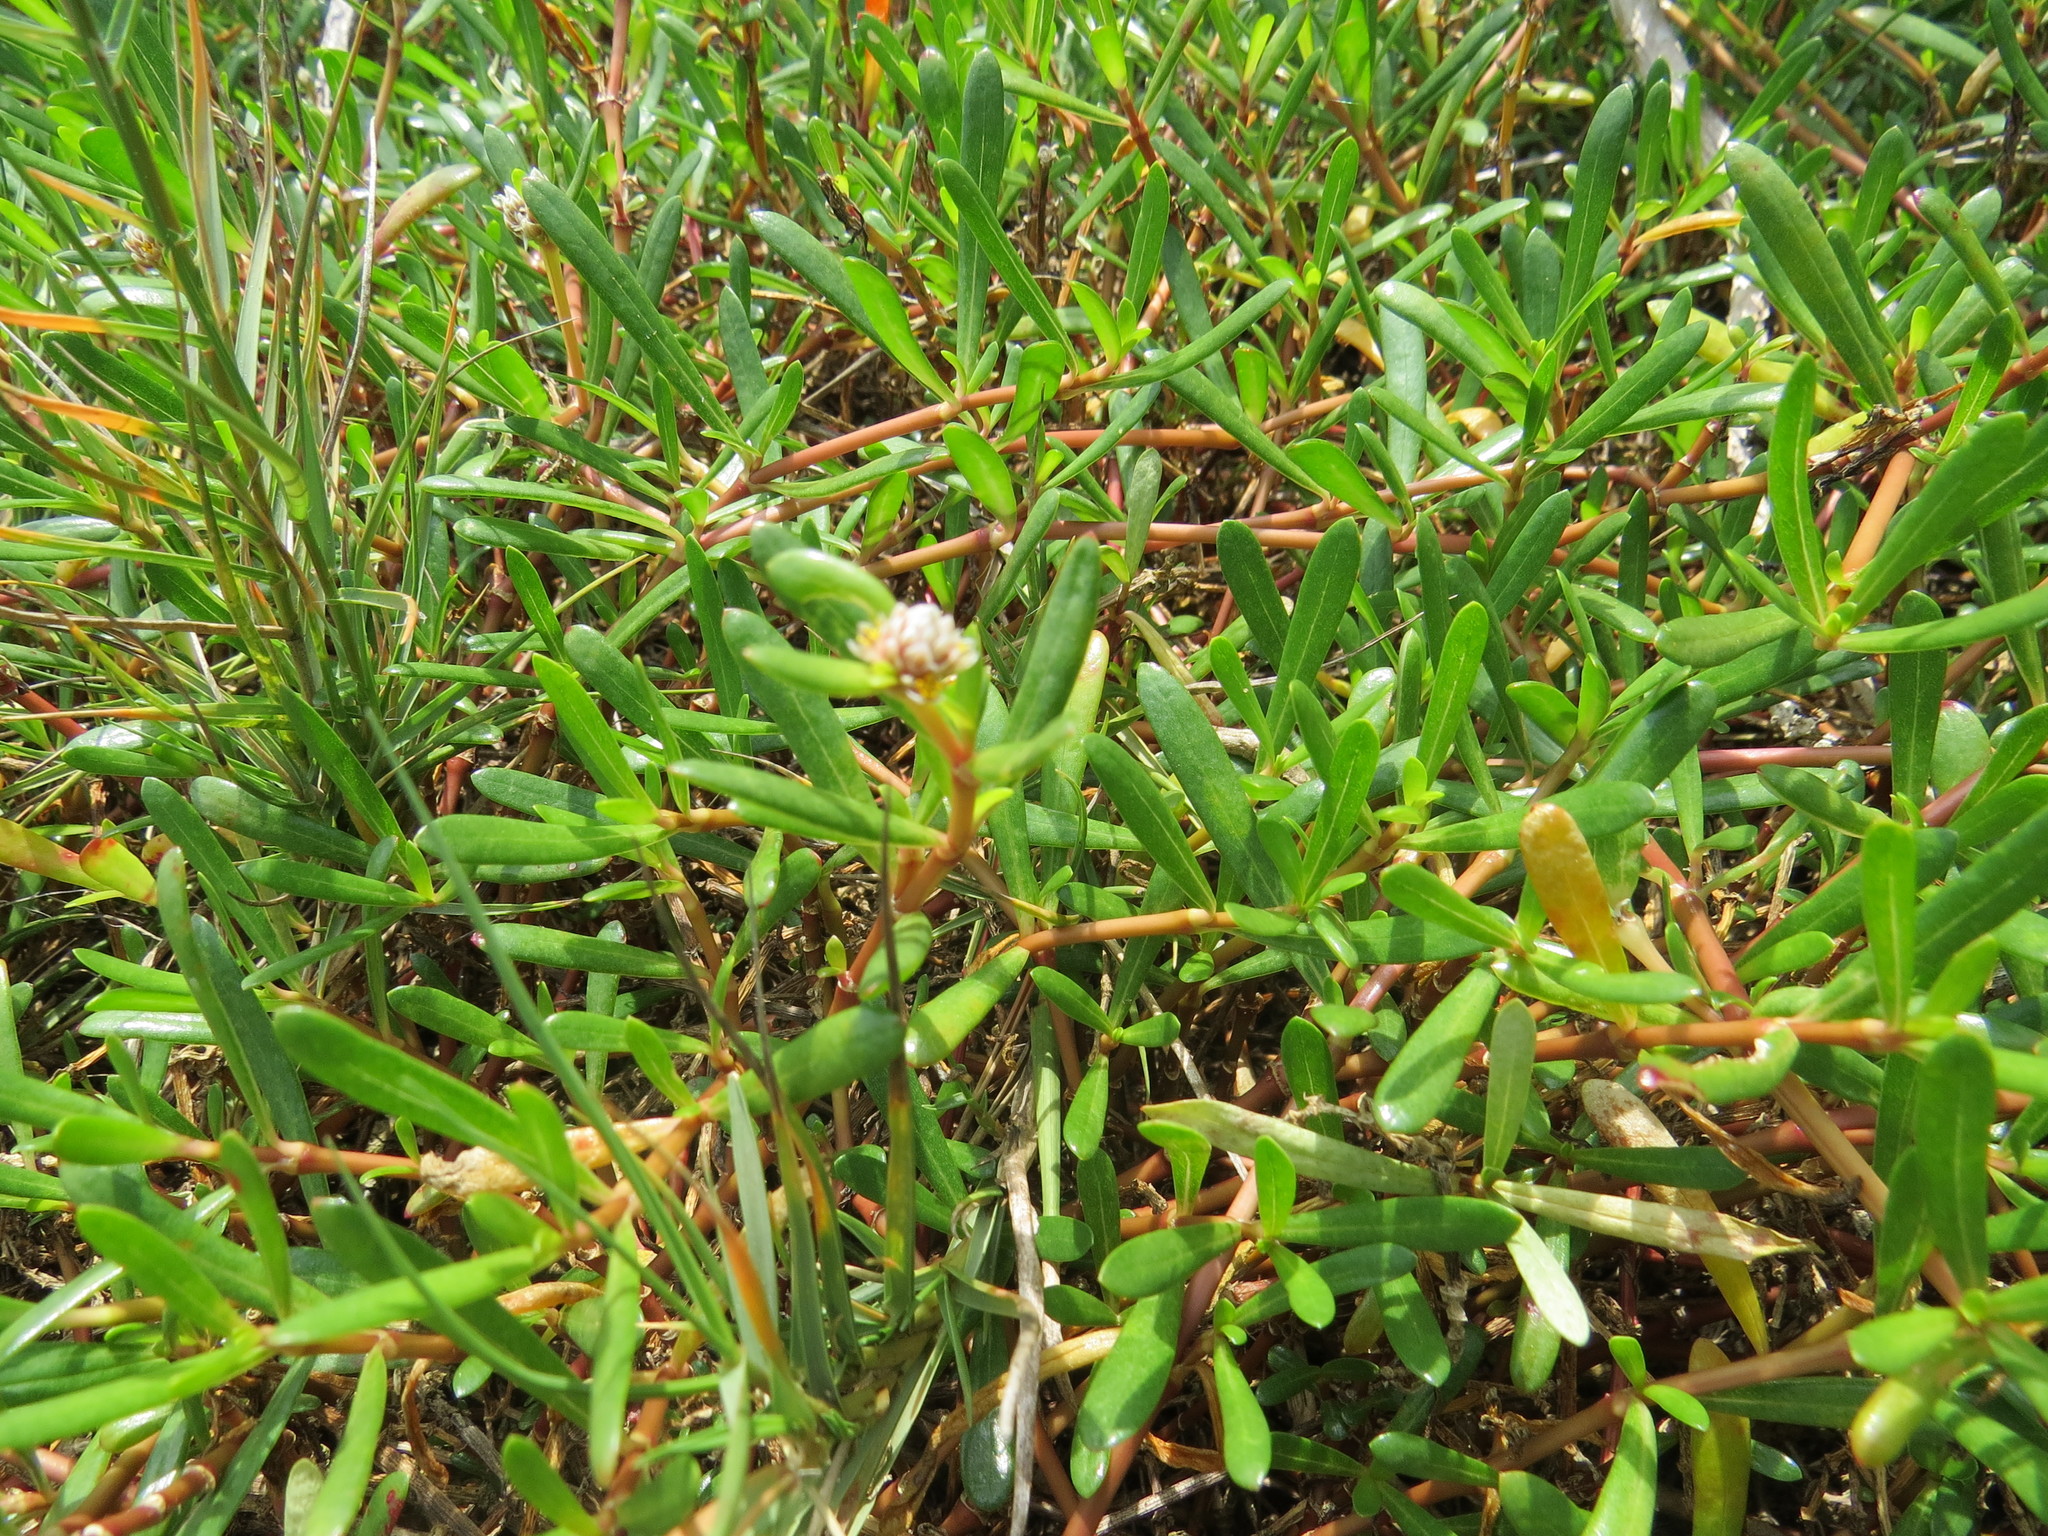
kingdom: Plantae
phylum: Tracheophyta
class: Magnoliopsida
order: Caryophyllales
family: Amaranthaceae
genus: Gomphrena
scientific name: Gomphrena portulacoides
